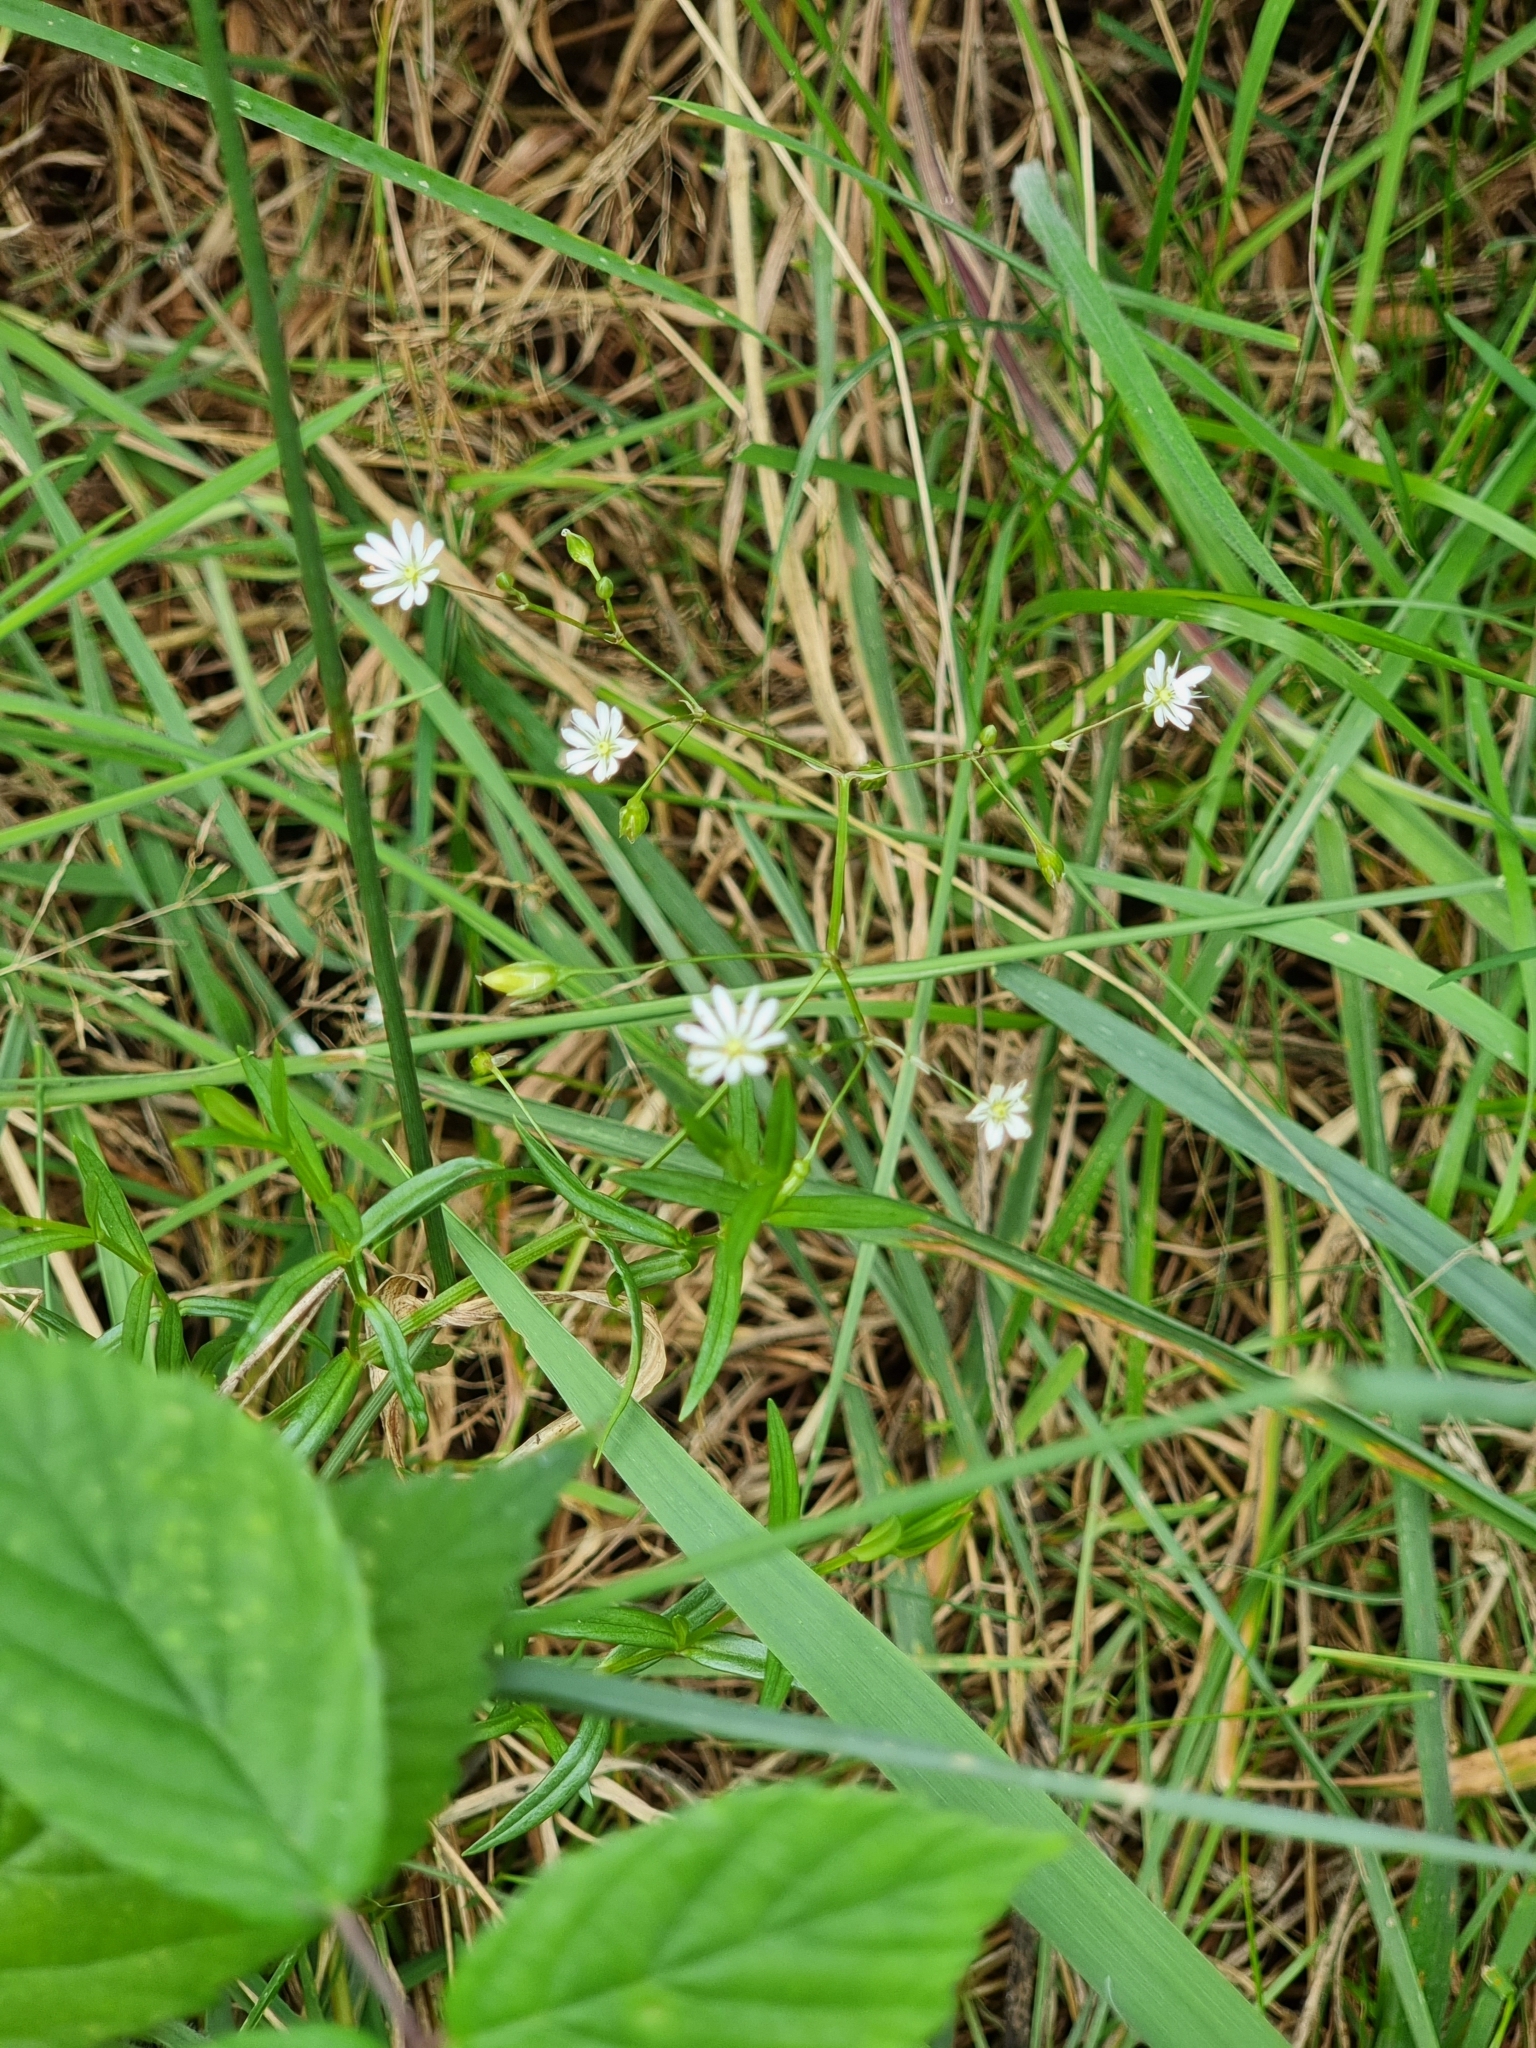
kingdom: Plantae
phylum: Tracheophyta
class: Magnoliopsida
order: Caryophyllales
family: Caryophyllaceae
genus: Stellaria
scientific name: Stellaria graminea
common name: Grass-like starwort
